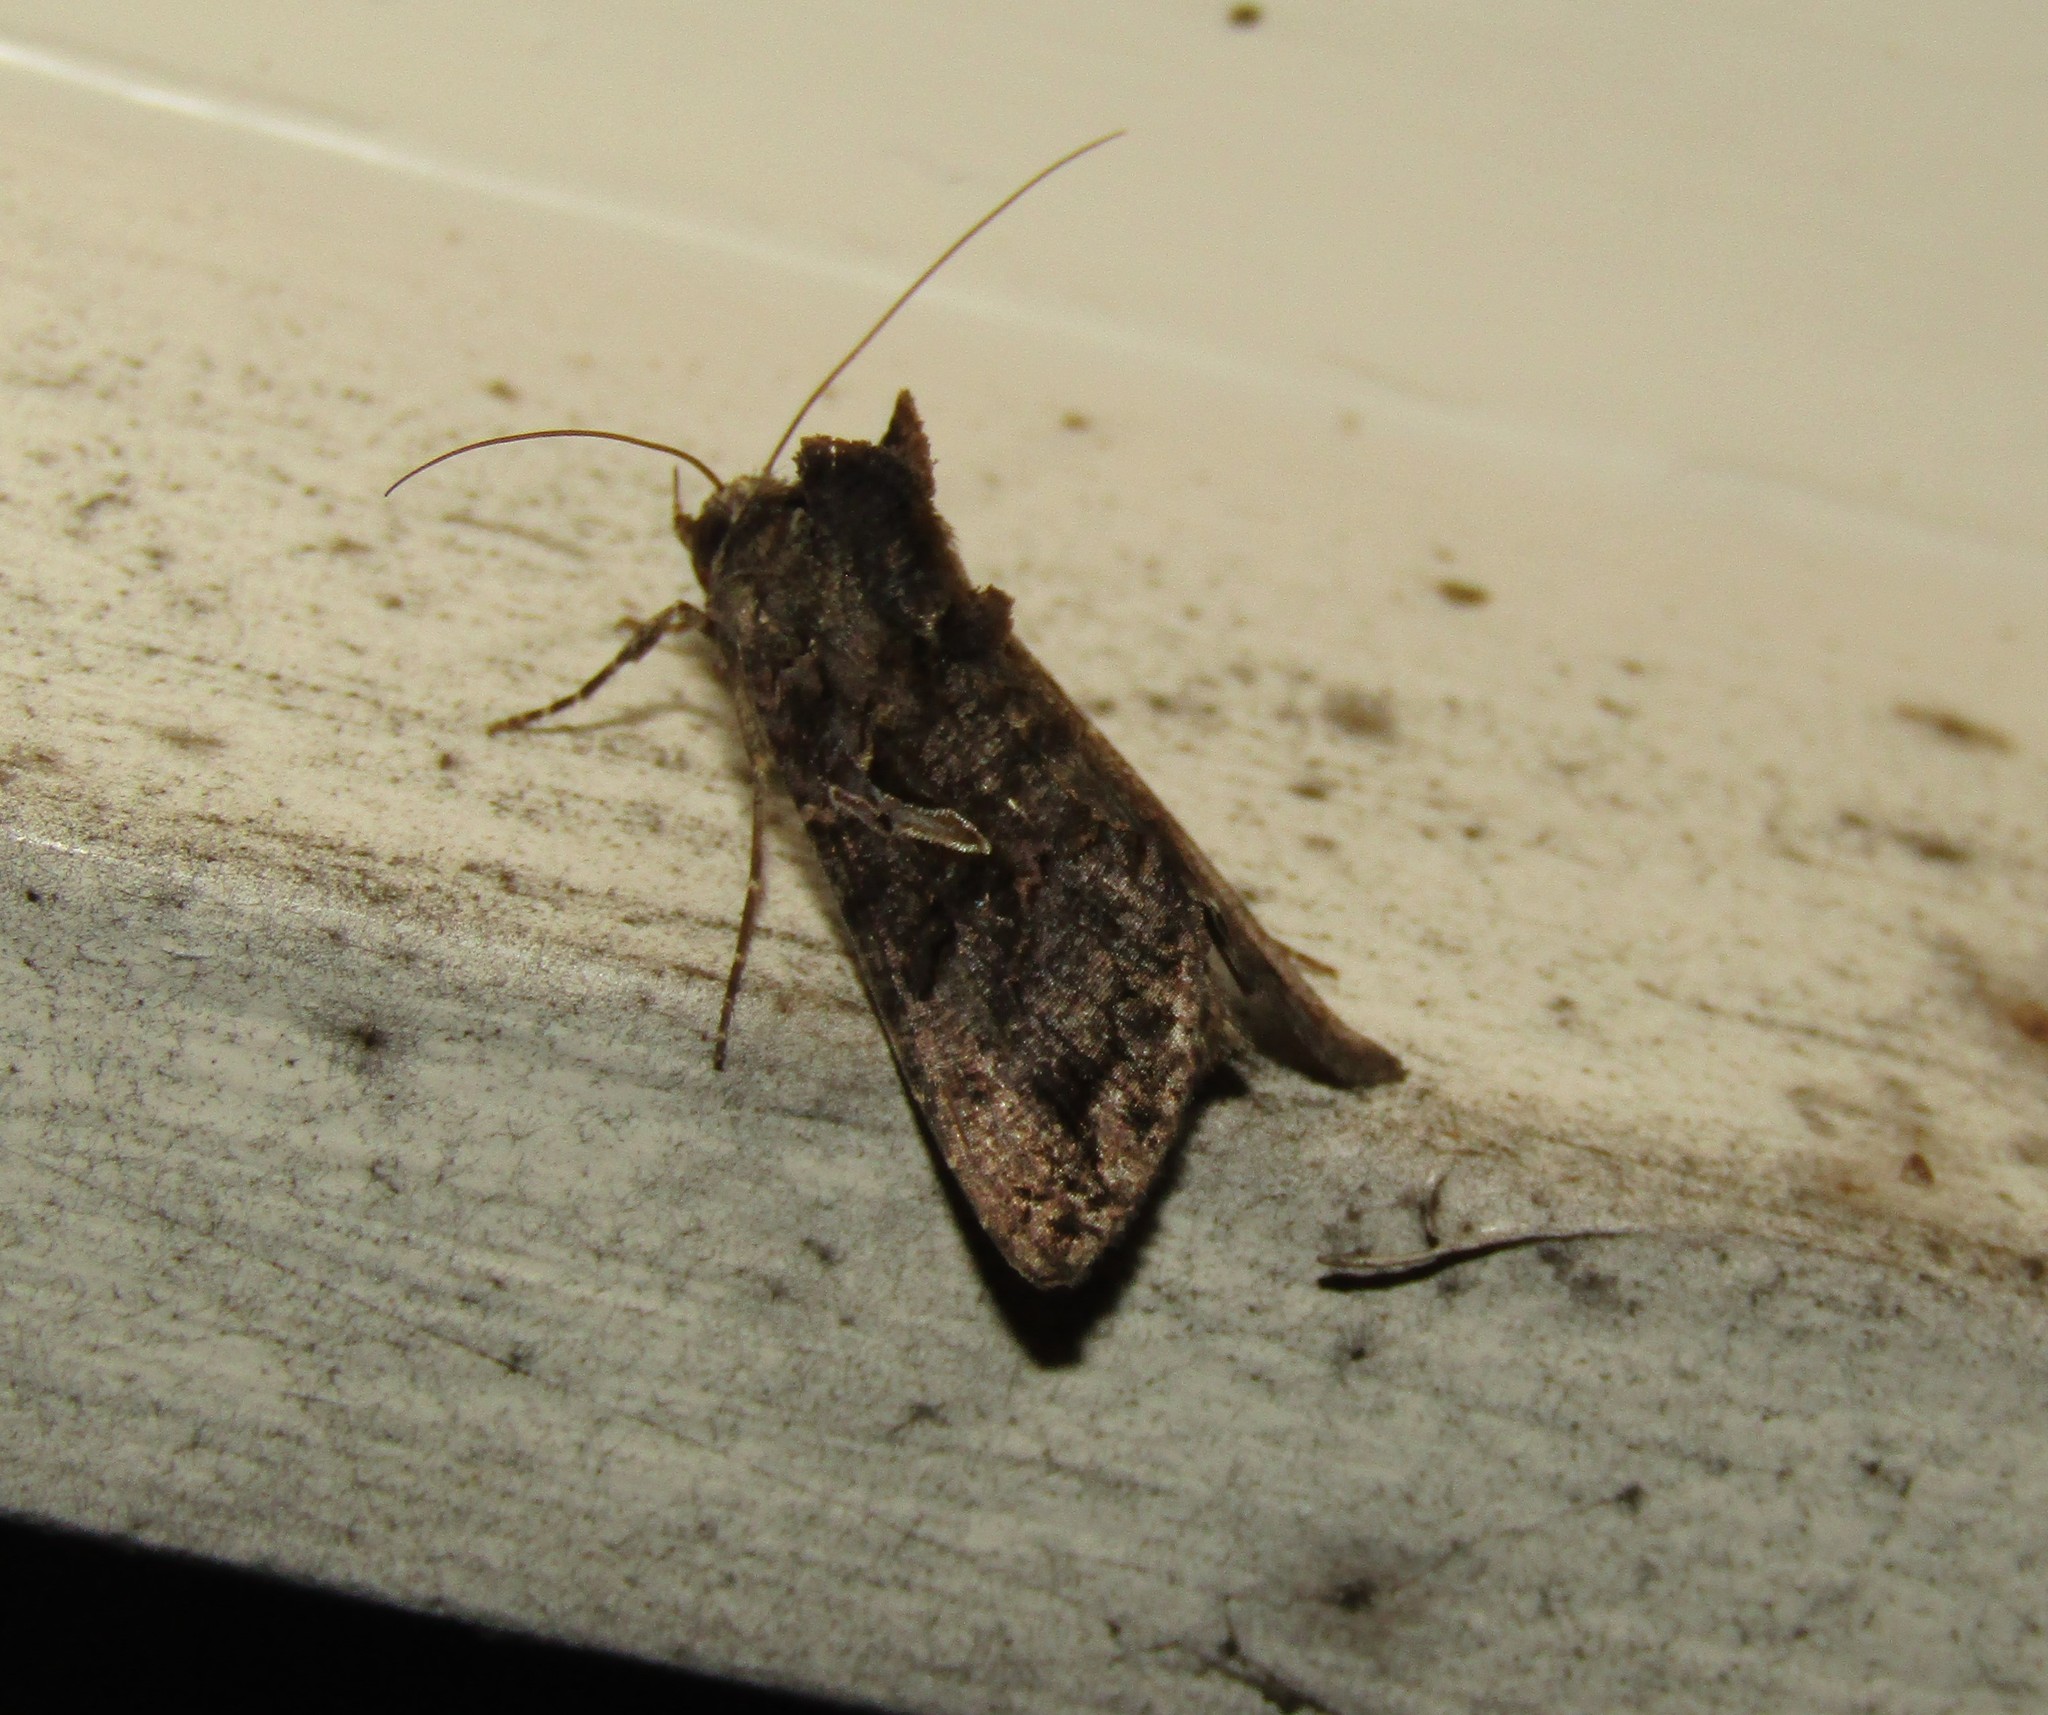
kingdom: Animalia
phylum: Arthropoda
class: Insecta
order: Lepidoptera
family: Noctuidae
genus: Ctenoplusia
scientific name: Ctenoplusia oxygramma
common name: Sharp-stigma looper moth
